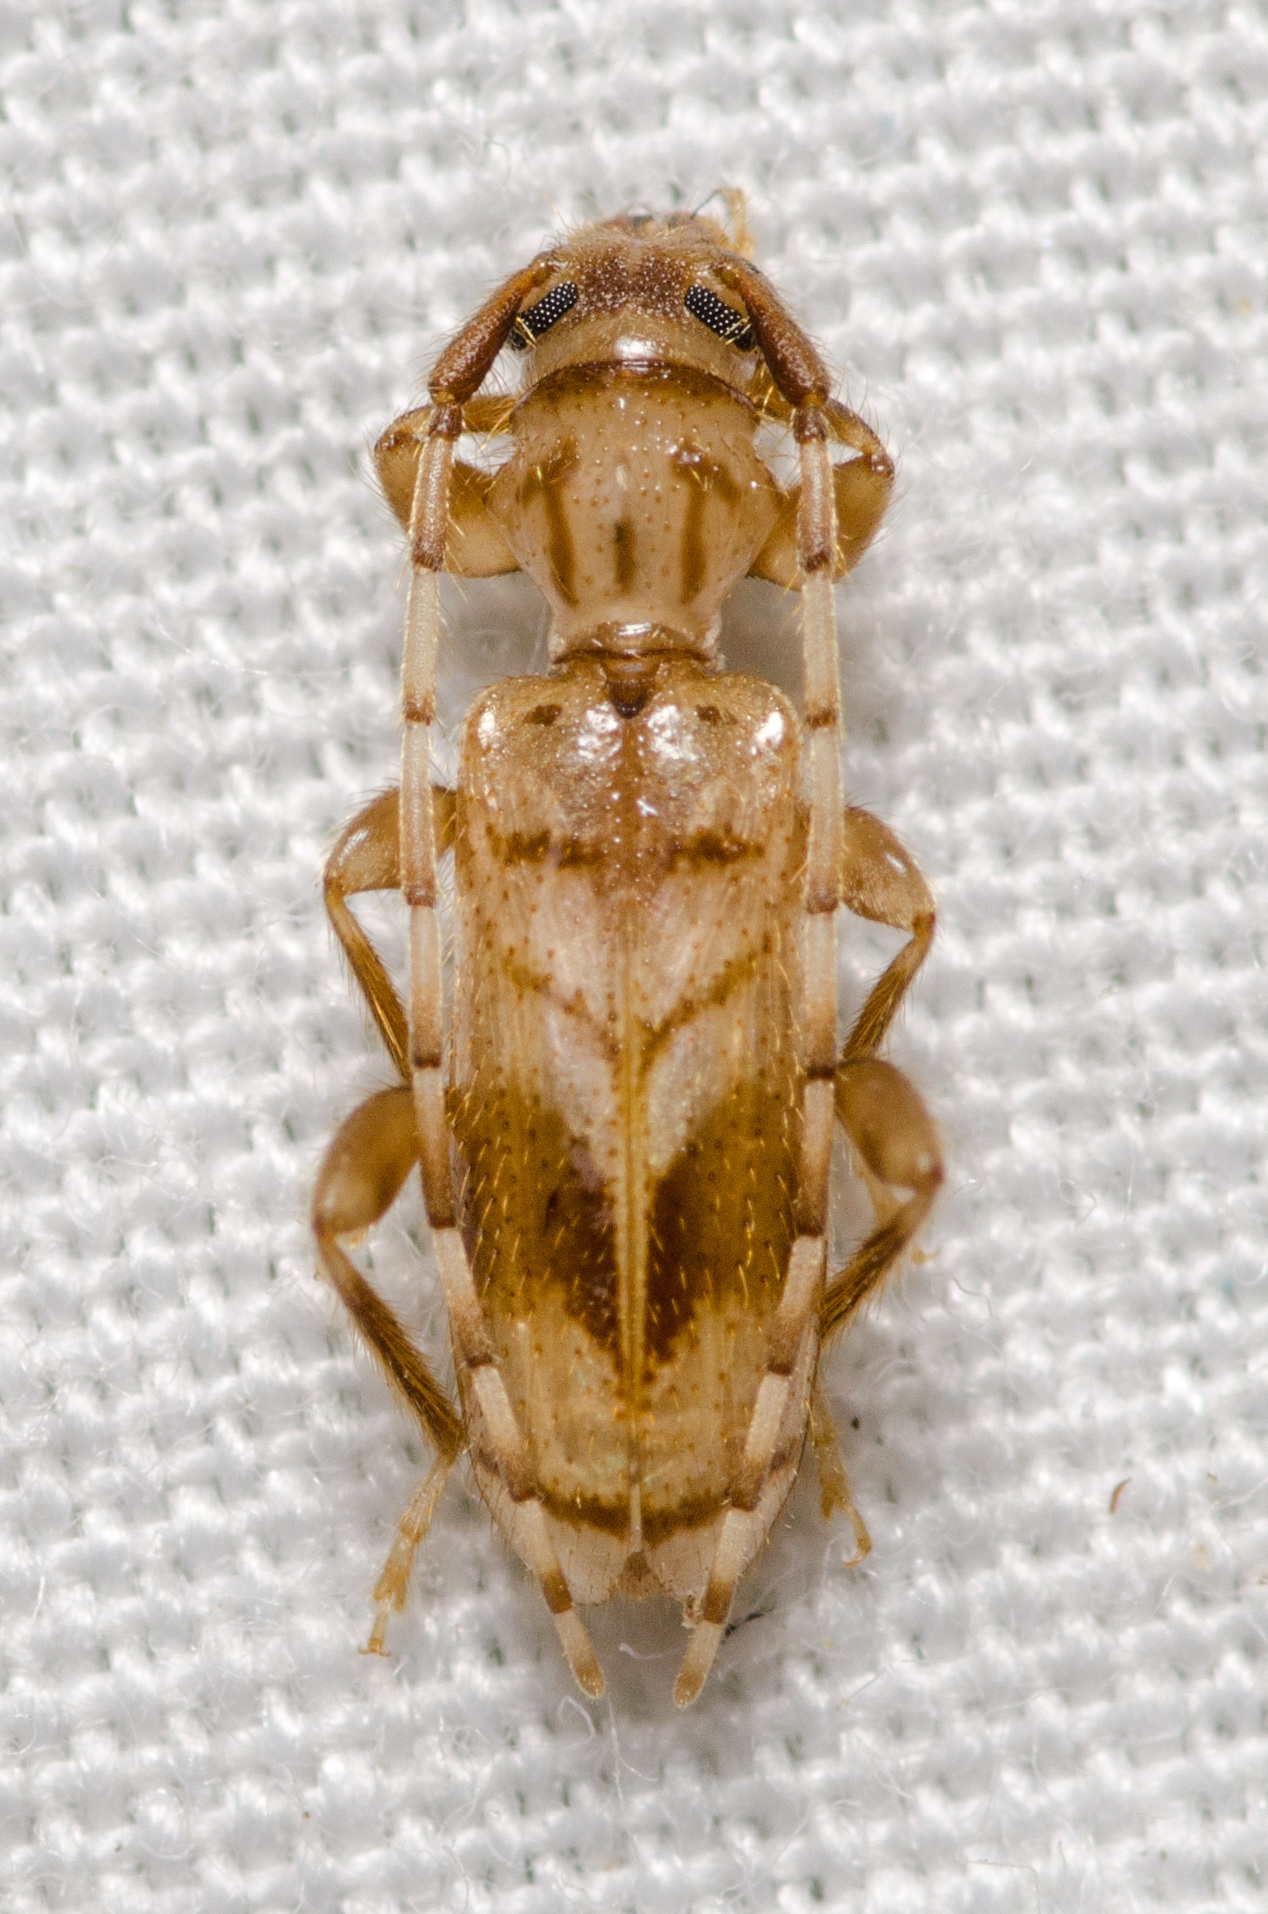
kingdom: Animalia
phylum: Arthropoda
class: Insecta
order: Coleoptera
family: Cerambycidae
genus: Obrium
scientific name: Obrium maculatum
